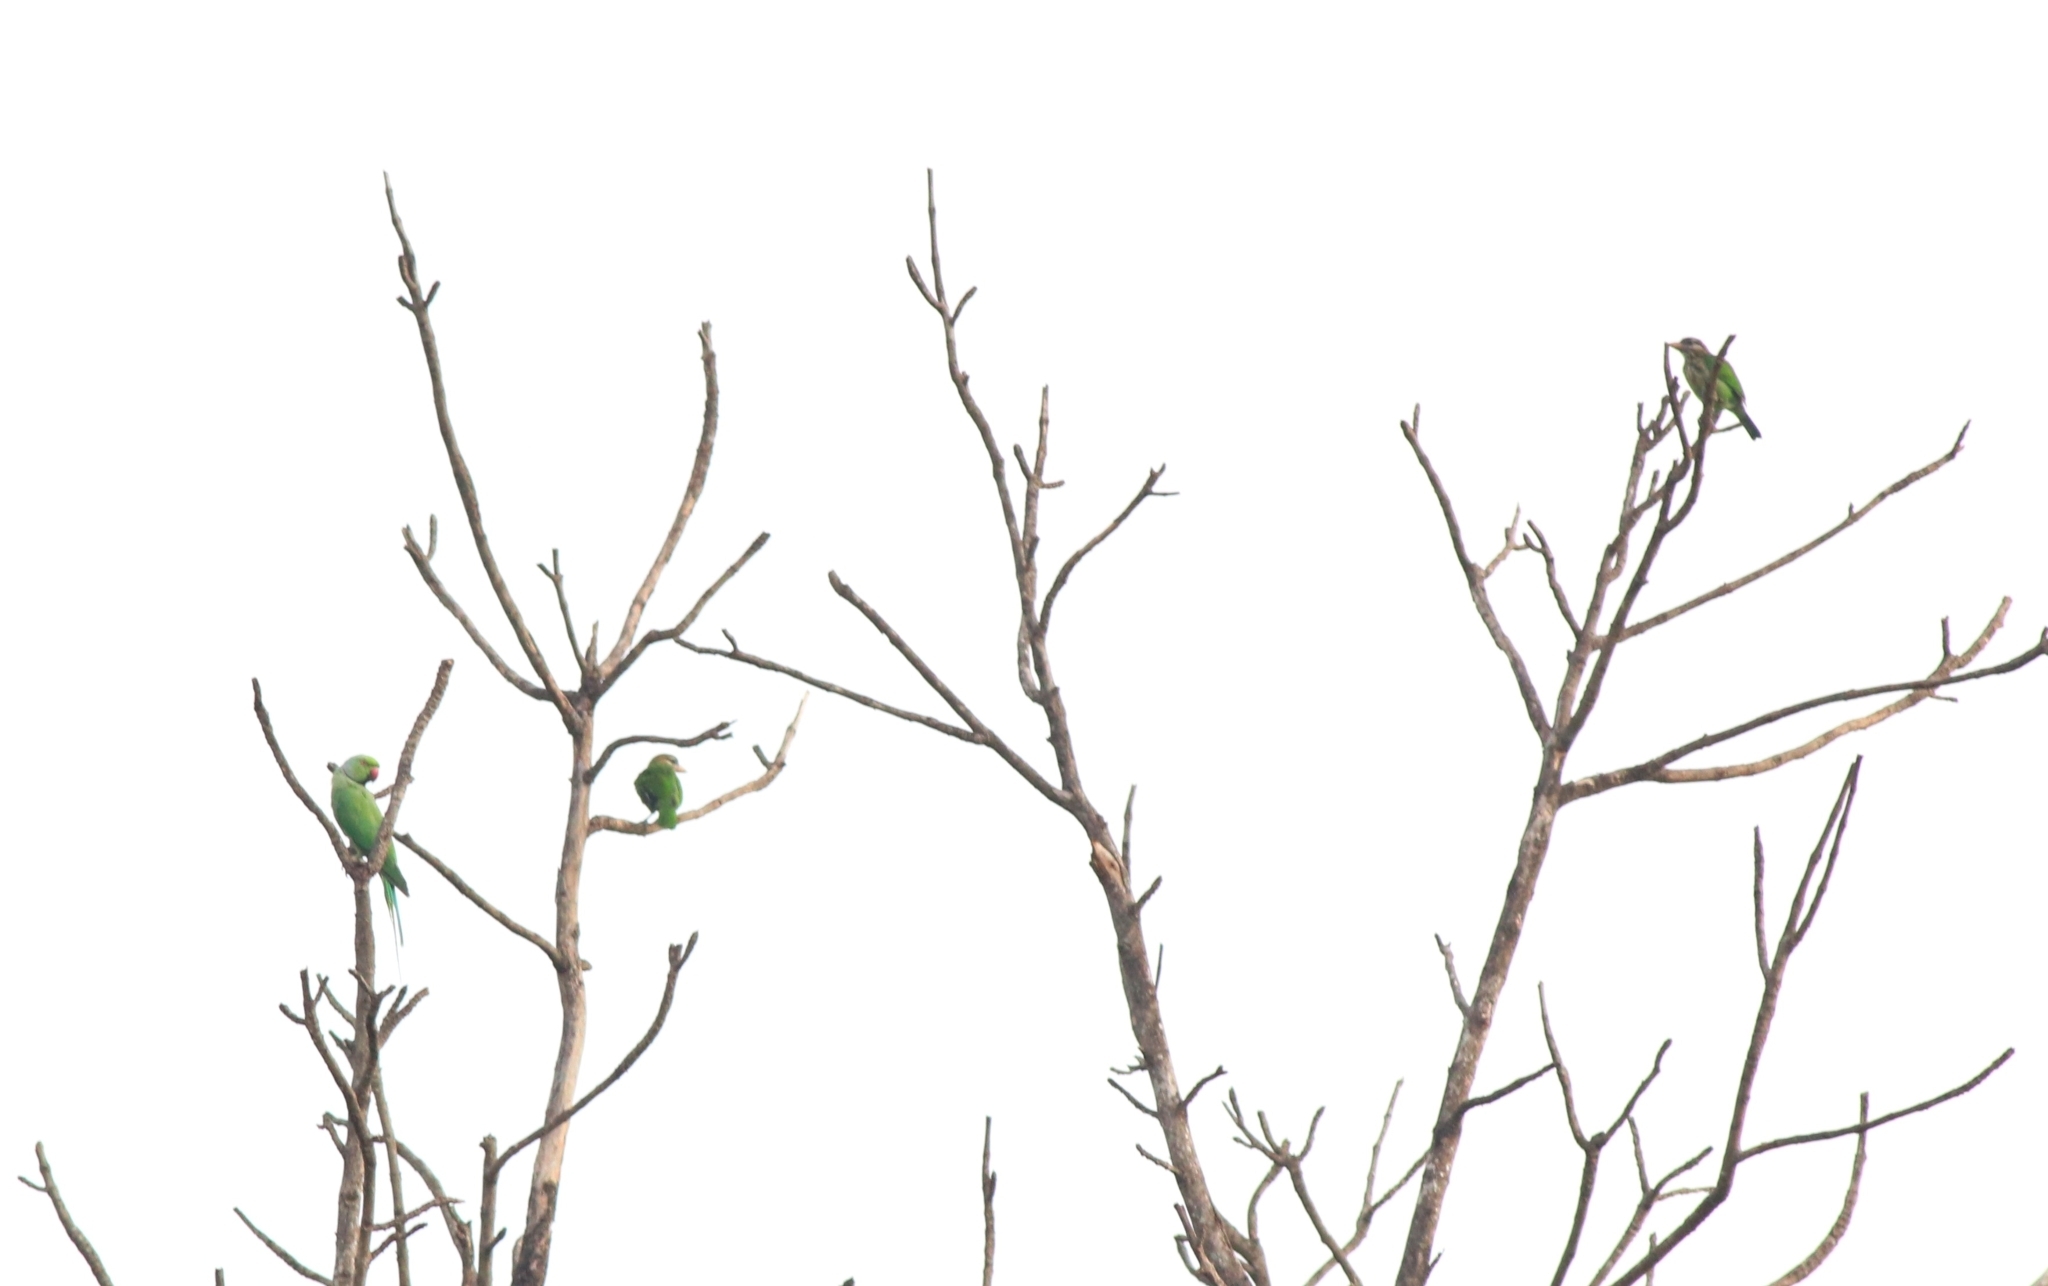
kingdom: Animalia
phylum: Chordata
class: Aves
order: Piciformes
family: Megalaimidae
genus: Psilopogon
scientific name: Psilopogon viridis
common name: White-cheeked barbet
